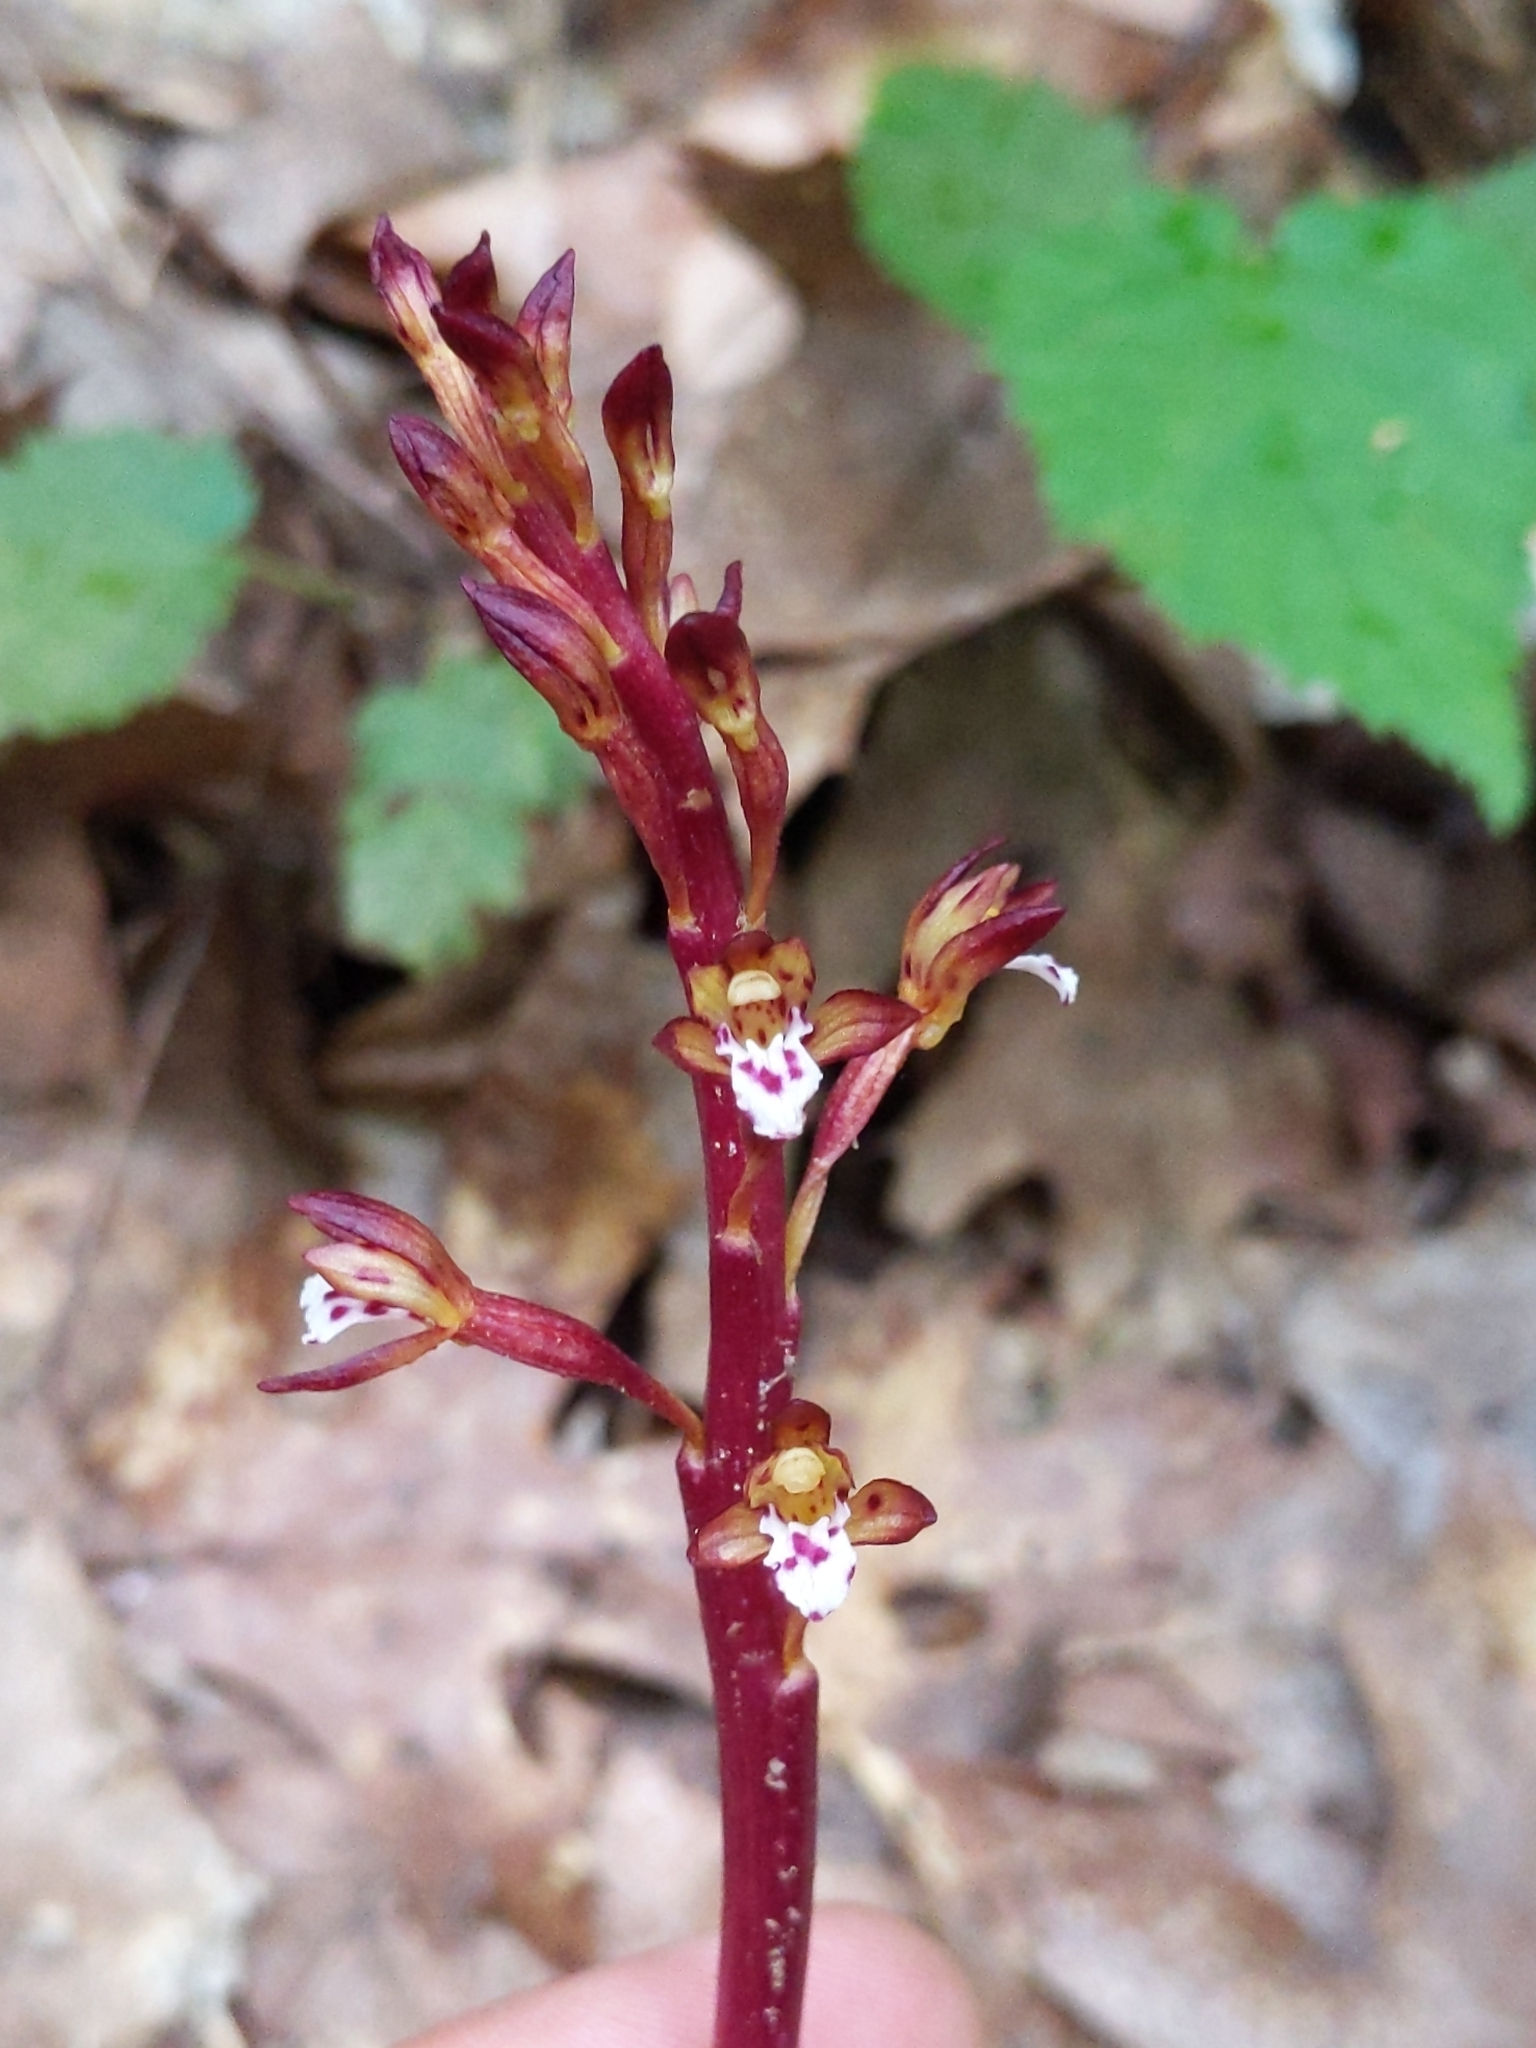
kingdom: Plantae
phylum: Tracheophyta
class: Liliopsida
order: Asparagales
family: Orchidaceae
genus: Corallorhiza
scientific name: Corallorhiza maculata
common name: Spotted coralroot
